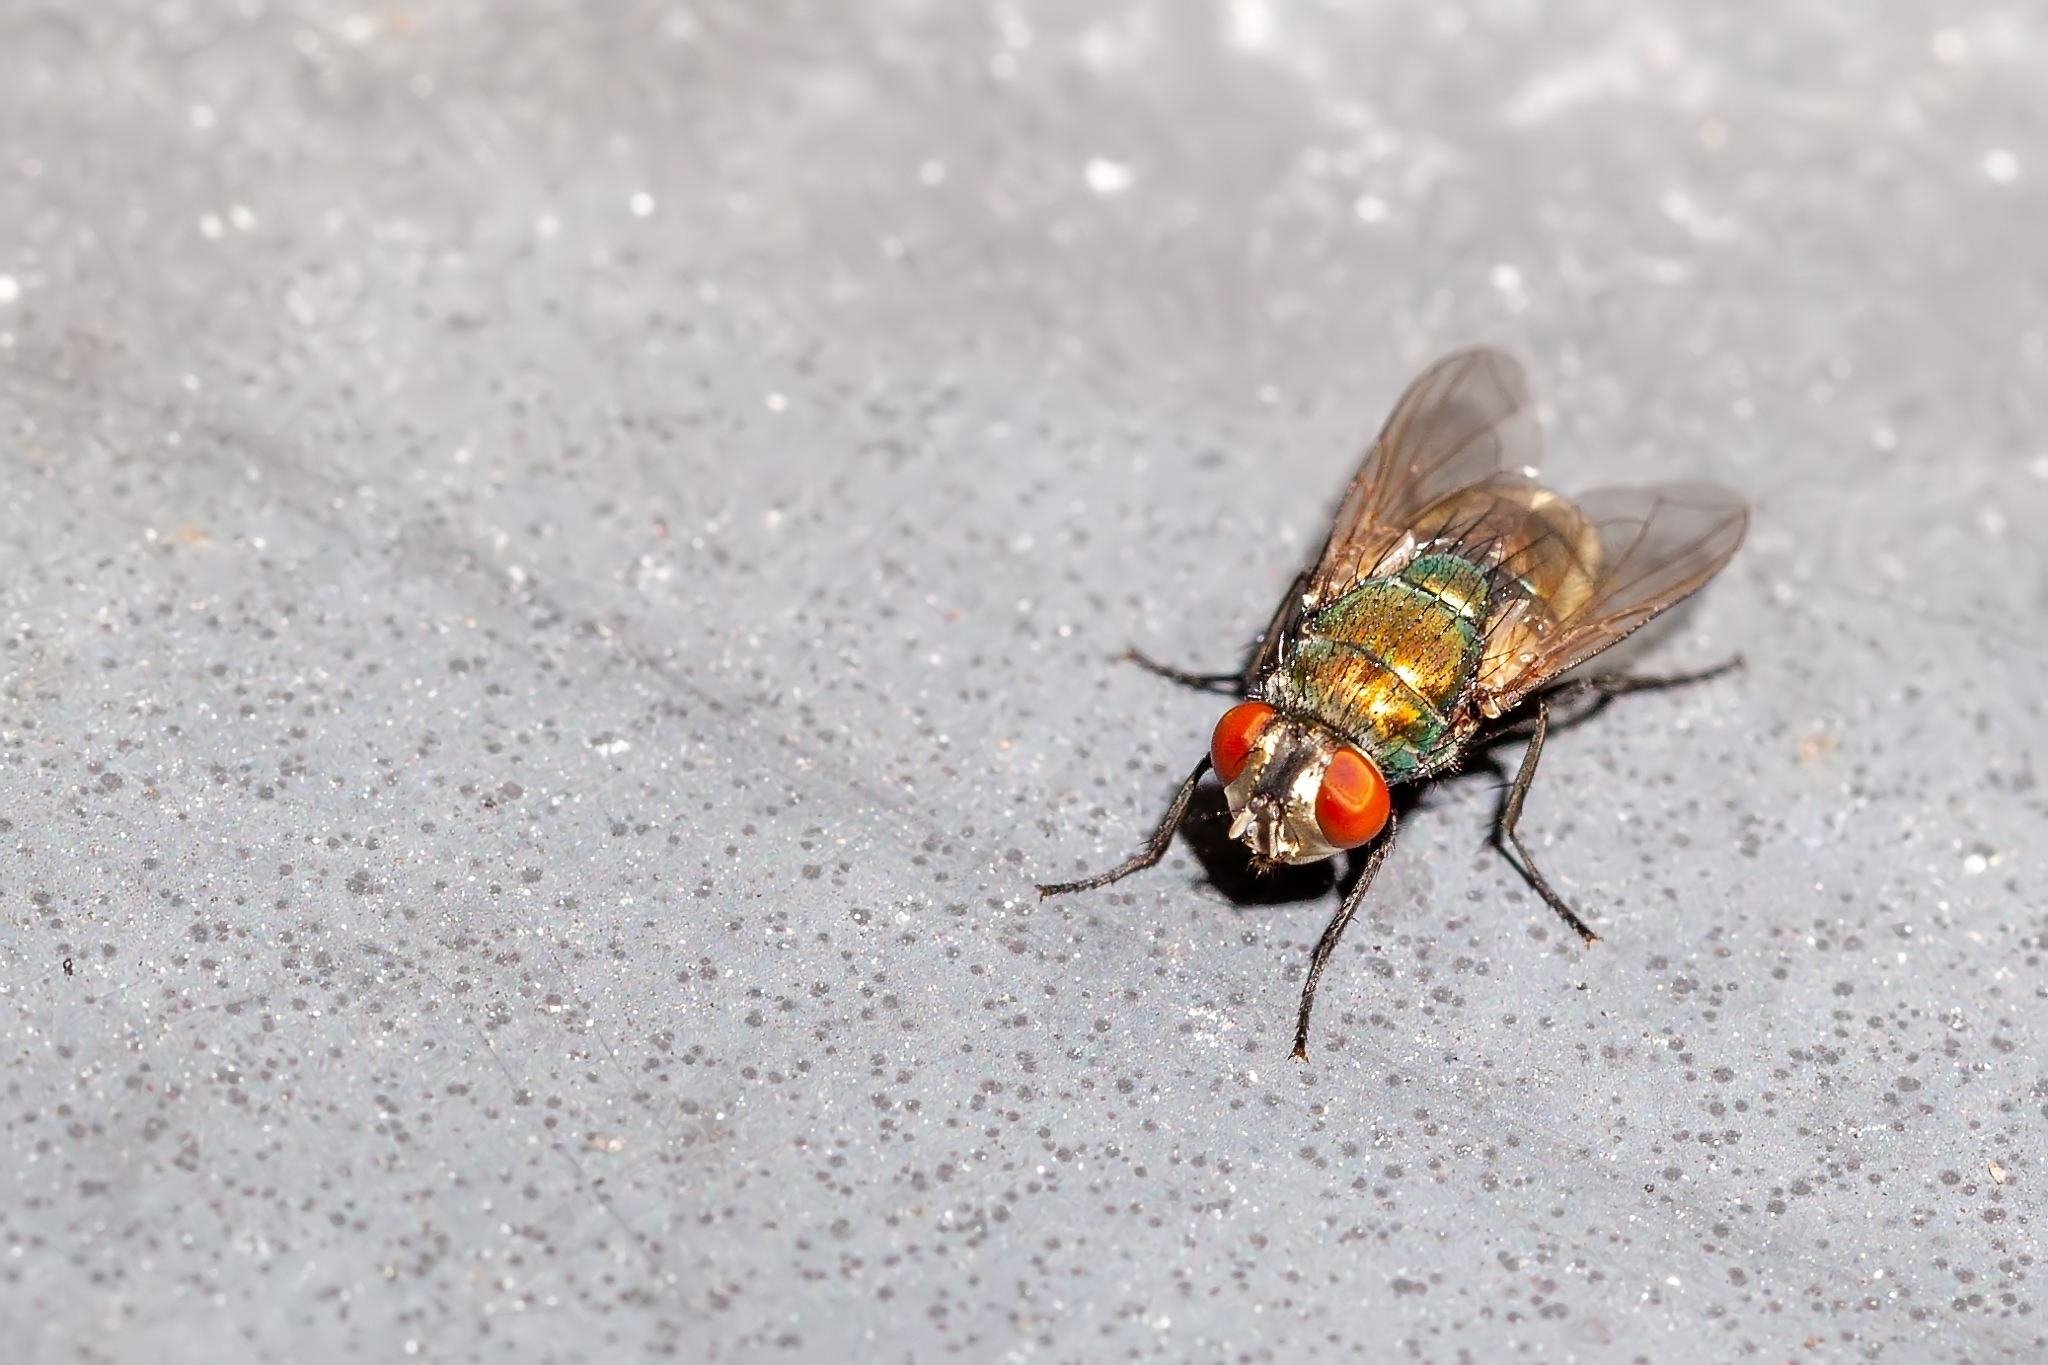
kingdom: Animalia
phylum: Arthropoda
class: Insecta
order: Diptera
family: Calliphoridae
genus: Lucilia
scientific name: Lucilia cuprina
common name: Sheep blow fly
